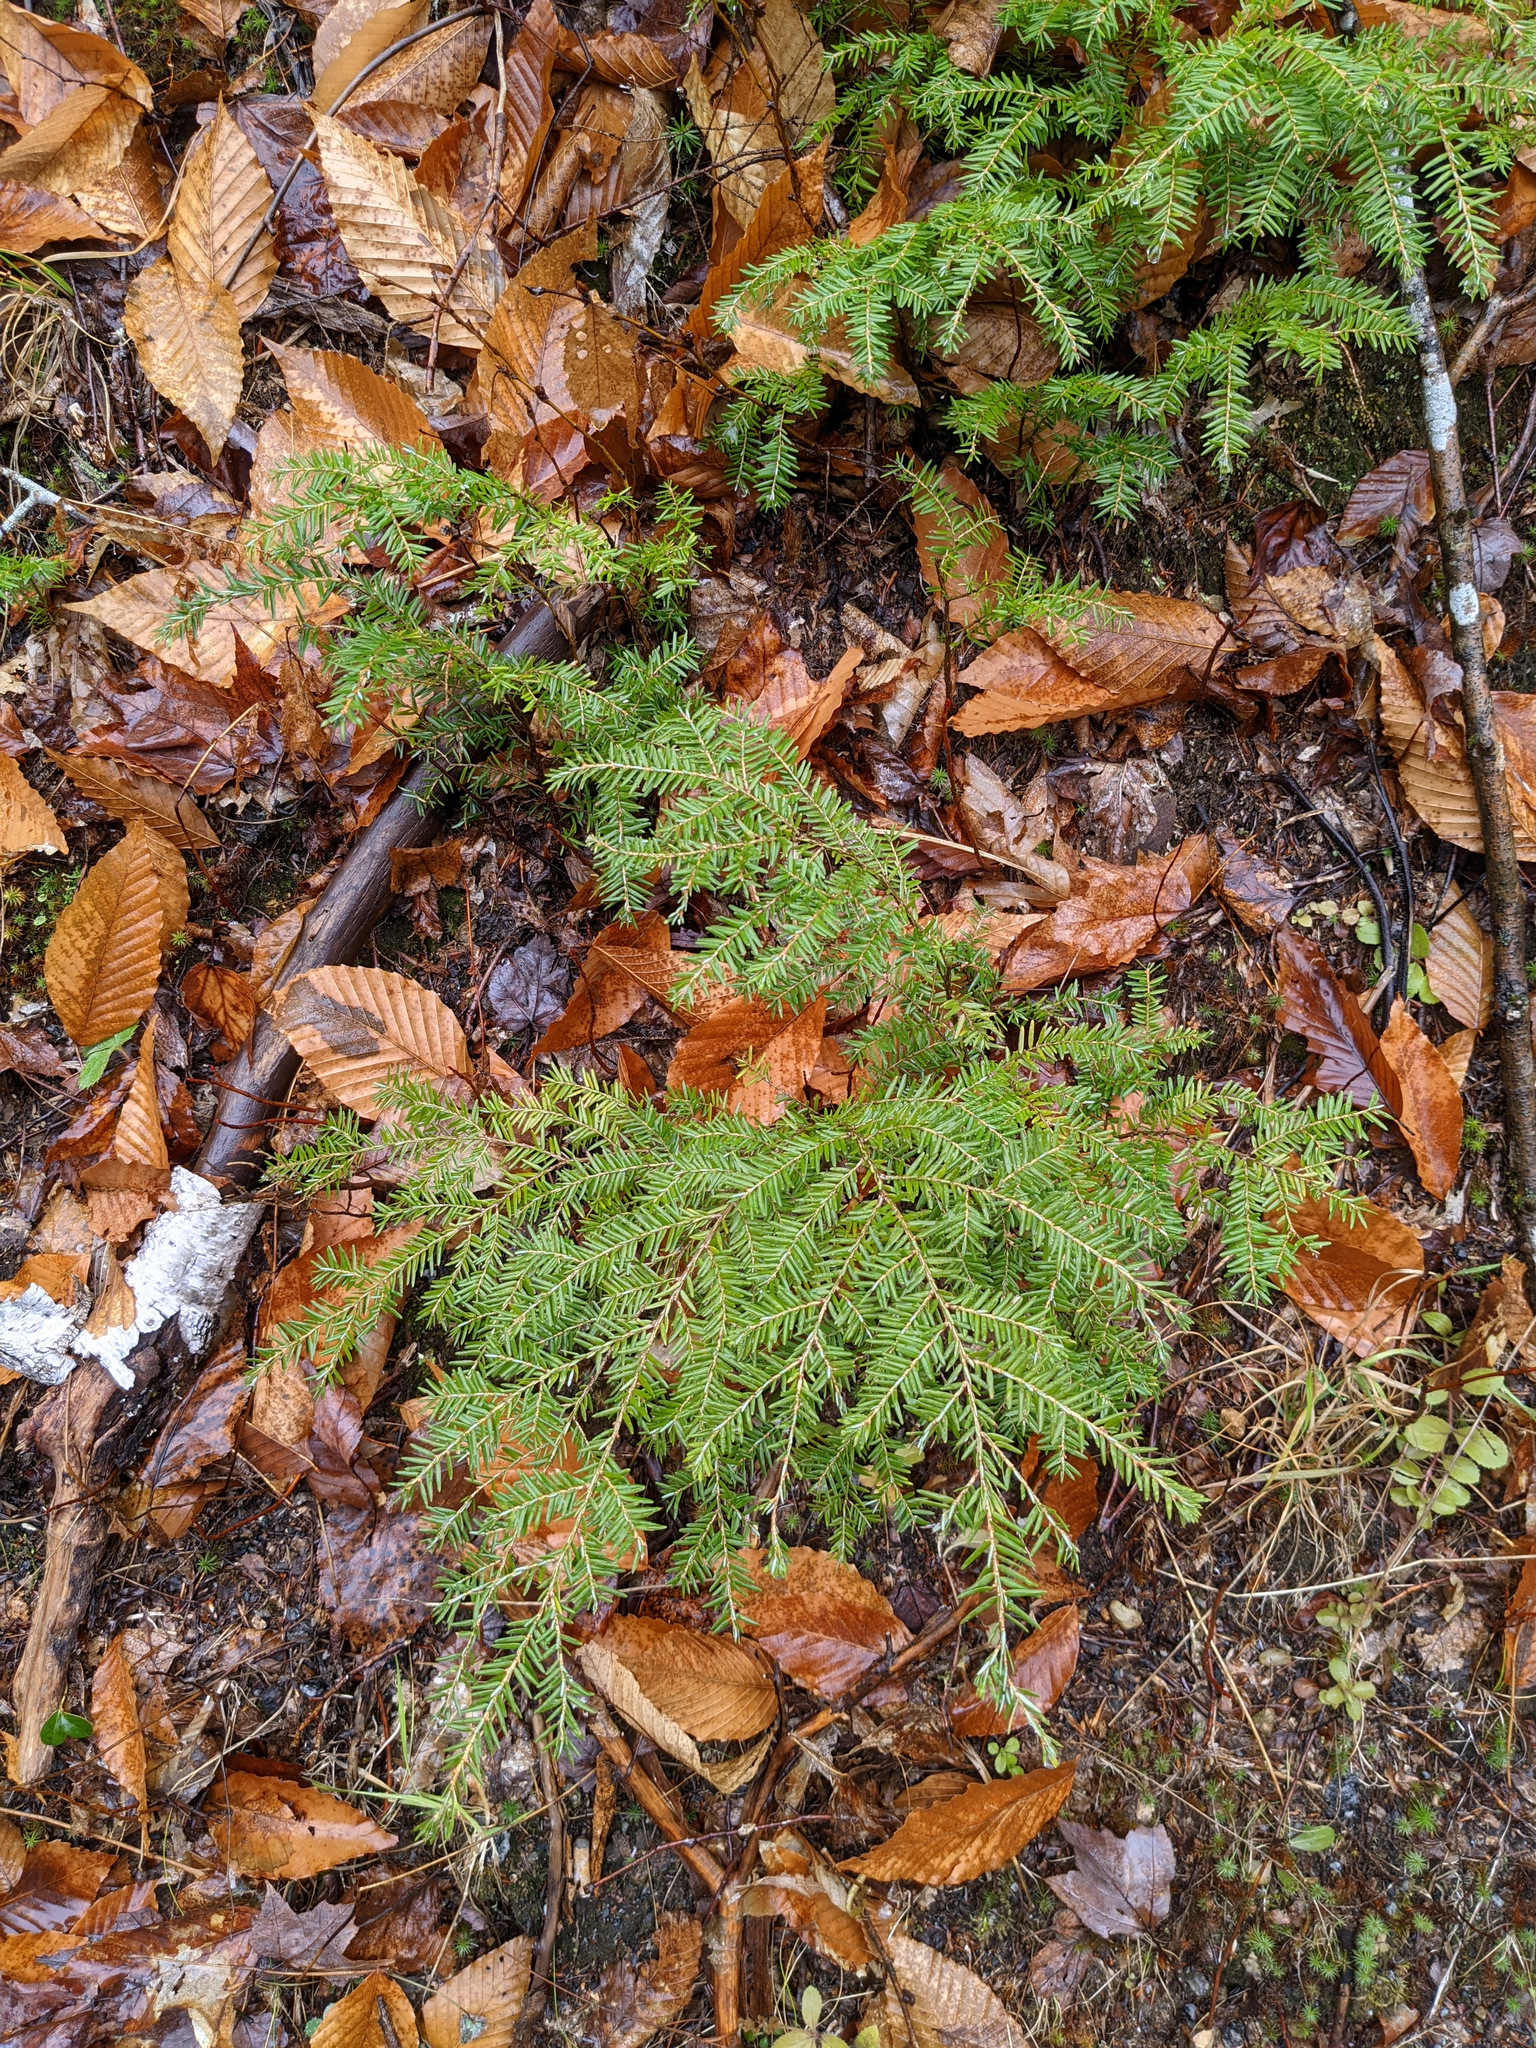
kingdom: Plantae
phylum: Tracheophyta
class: Pinopsida
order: Pinales
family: Pinaceae
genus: Tsuga
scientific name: Tsuga canadensis
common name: Eastern hemlock
